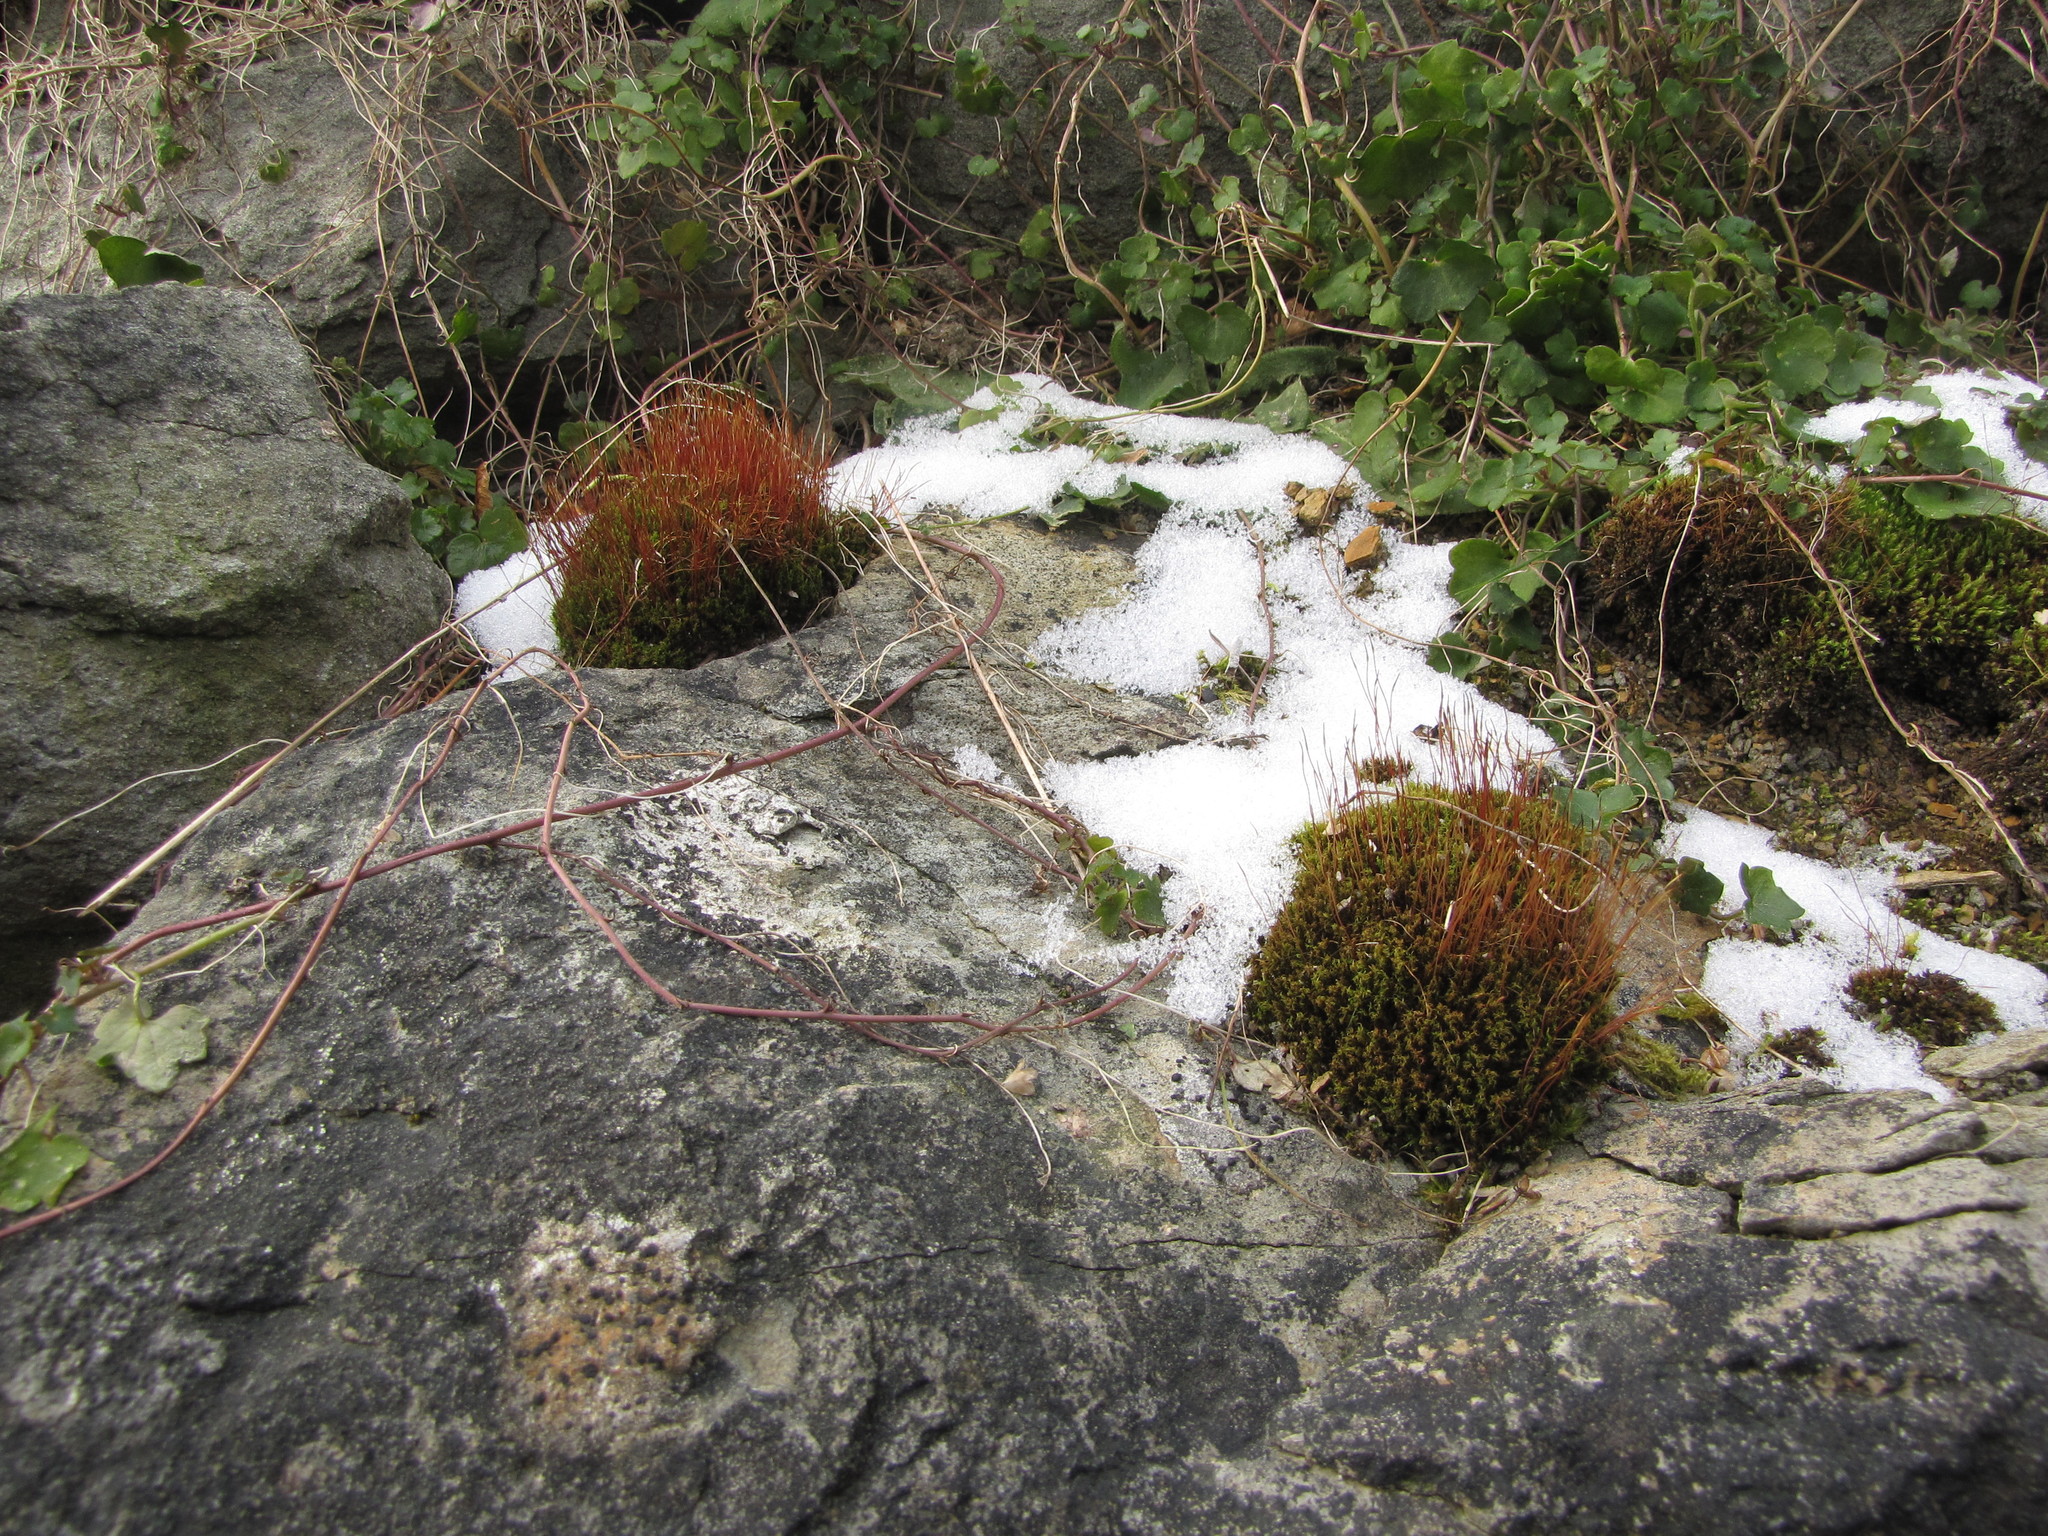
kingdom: Plantae
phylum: Bryophyta
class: Bryopsida
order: Dicranales
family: Ditrichaceae
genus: Ceratodon
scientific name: Ceratodon purpureus
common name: Redshank
